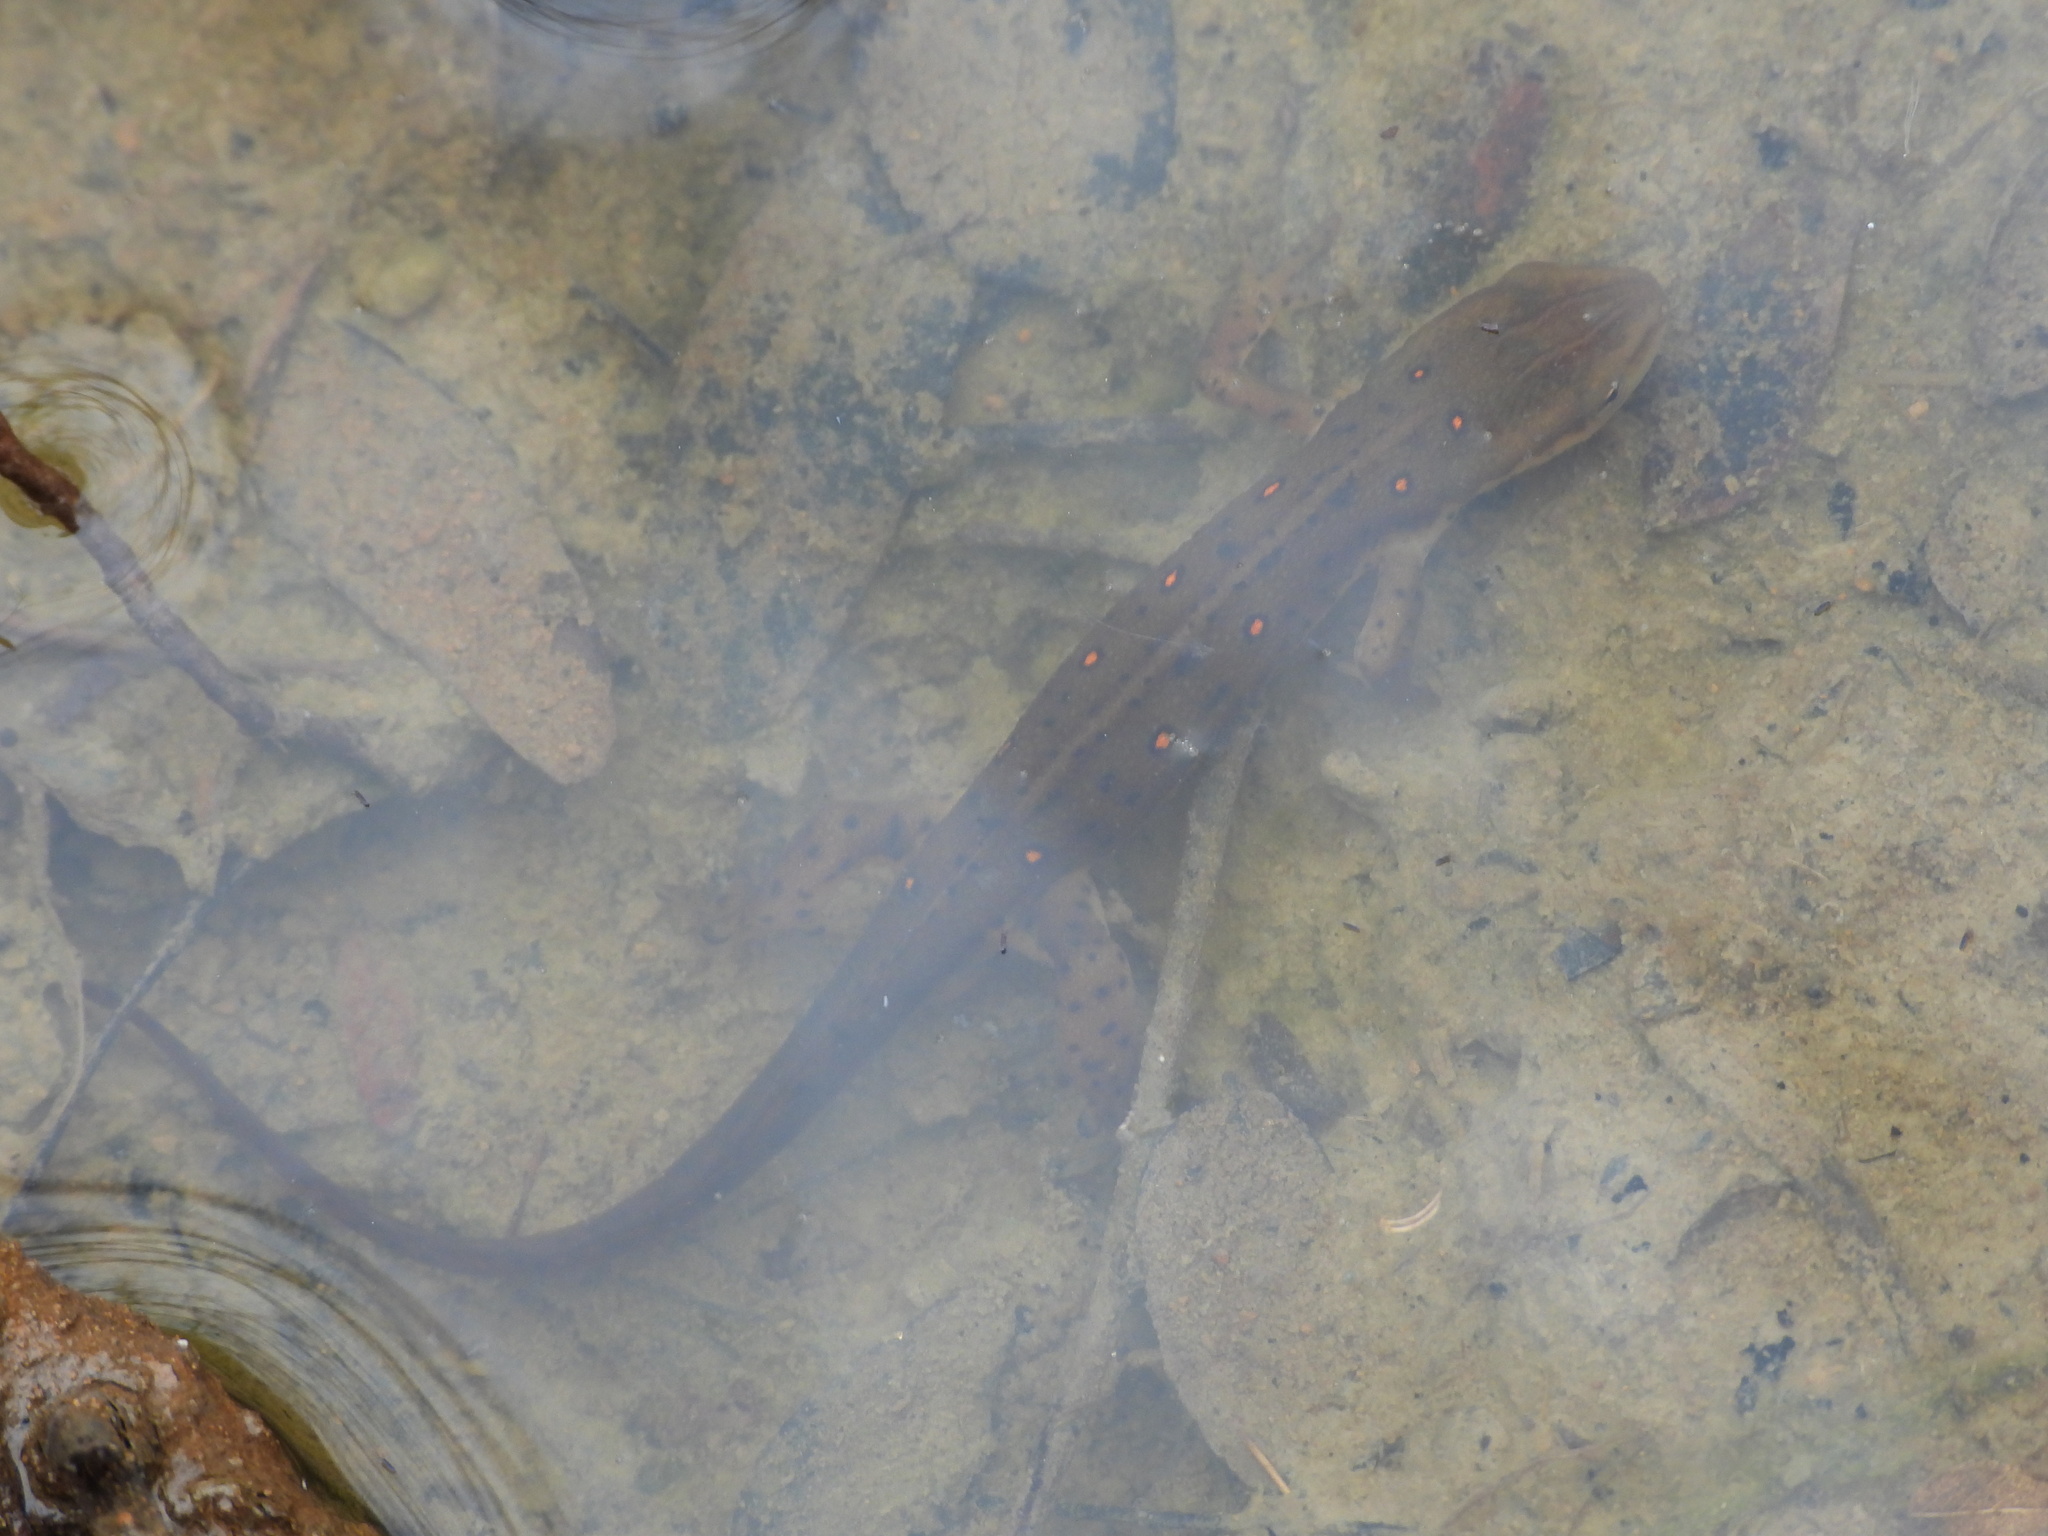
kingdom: Animalia
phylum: Chordata
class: Amphibia
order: Caudata
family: Salamandridae
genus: Notophthalmus
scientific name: Notophthalmus viridescens
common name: Eastern newt
